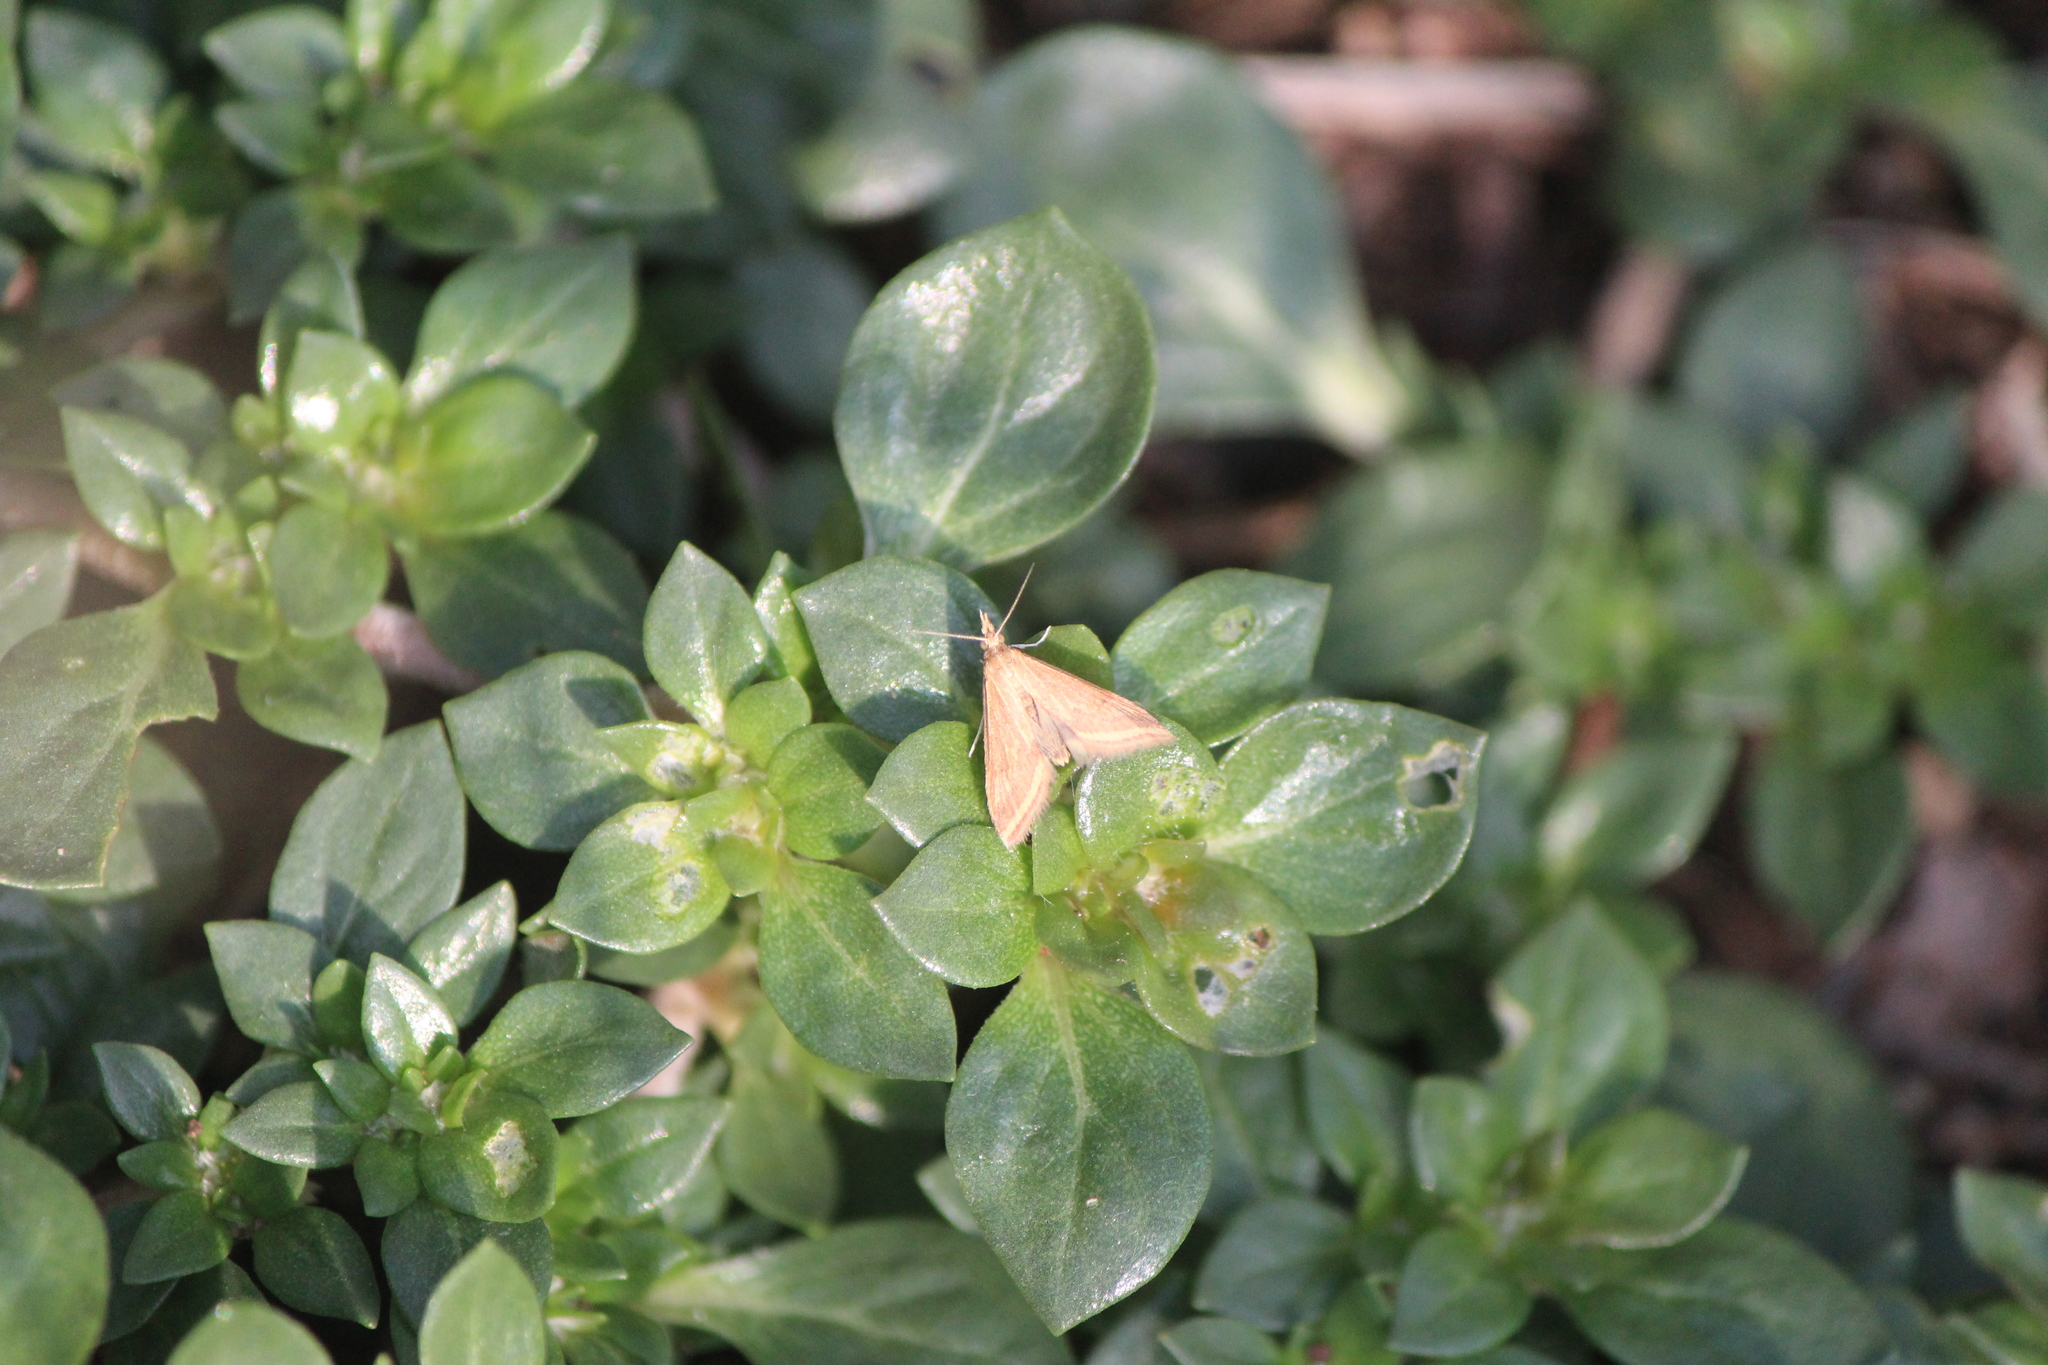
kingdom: Animalia
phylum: Arthropoda
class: Insecta
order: Lepidoptera
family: Crambidae
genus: Microtheoris
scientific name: Microtheoris ophionalis
